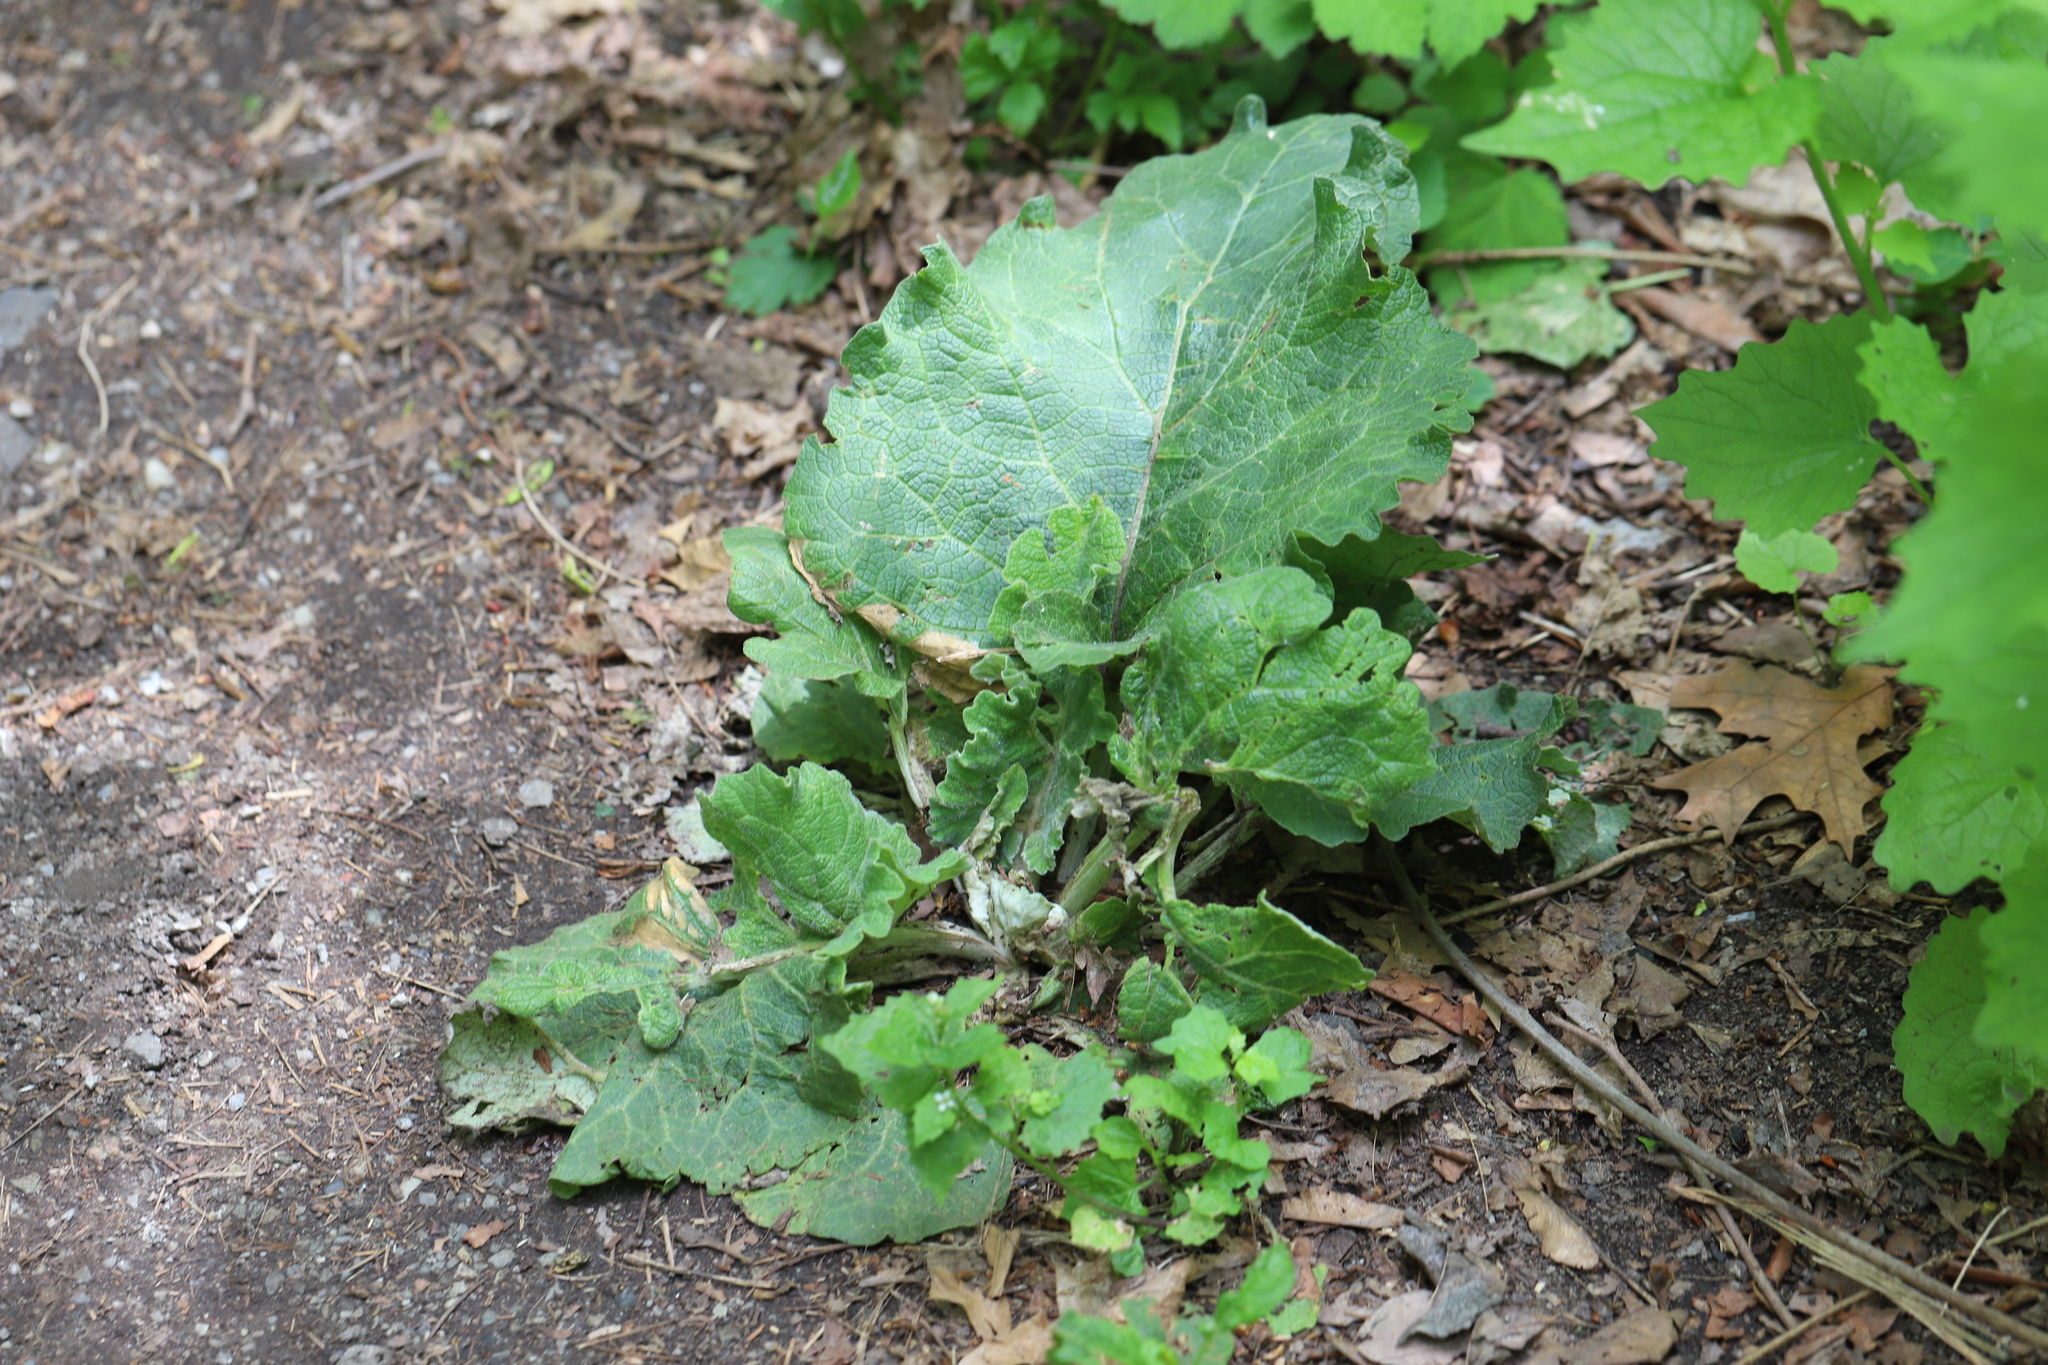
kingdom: Plantae
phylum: Tracheophyta
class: Magnoliopsida
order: Asterales
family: Asteraceae
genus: Arctium
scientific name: Arctium minus
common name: Lesser burdock
